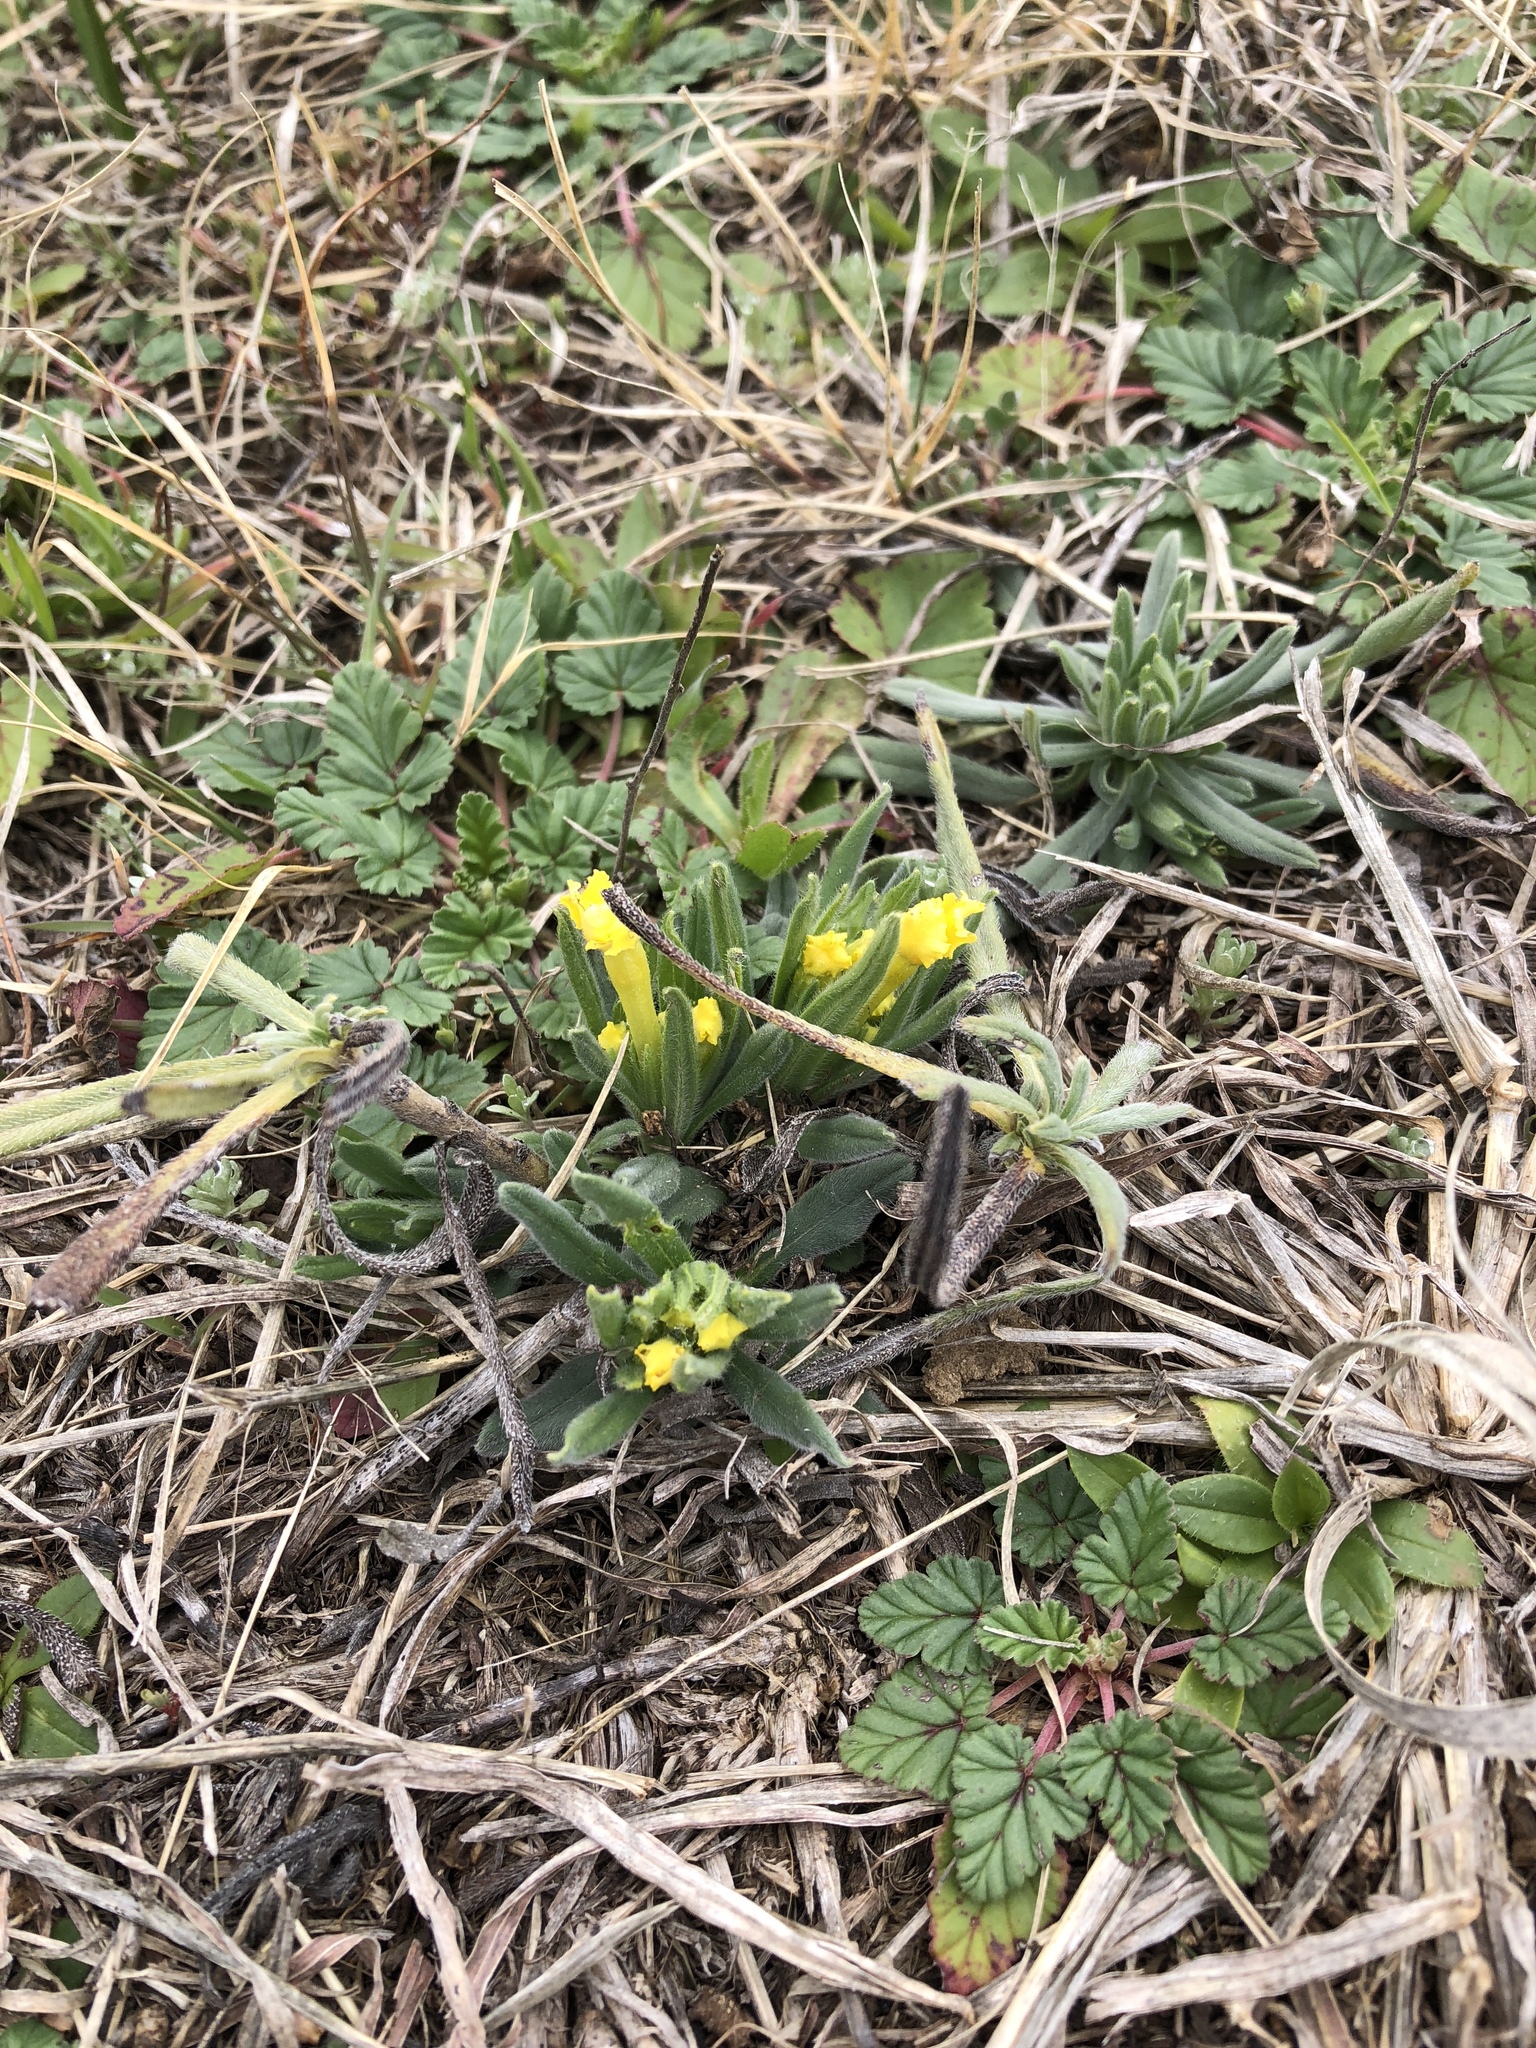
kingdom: Plantae
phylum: Tracheophyta
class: Magnoliopsida
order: Boraginales
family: Boraginaceae
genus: Lithospermum
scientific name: Lithospermum incisum
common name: Fringed gromwell
